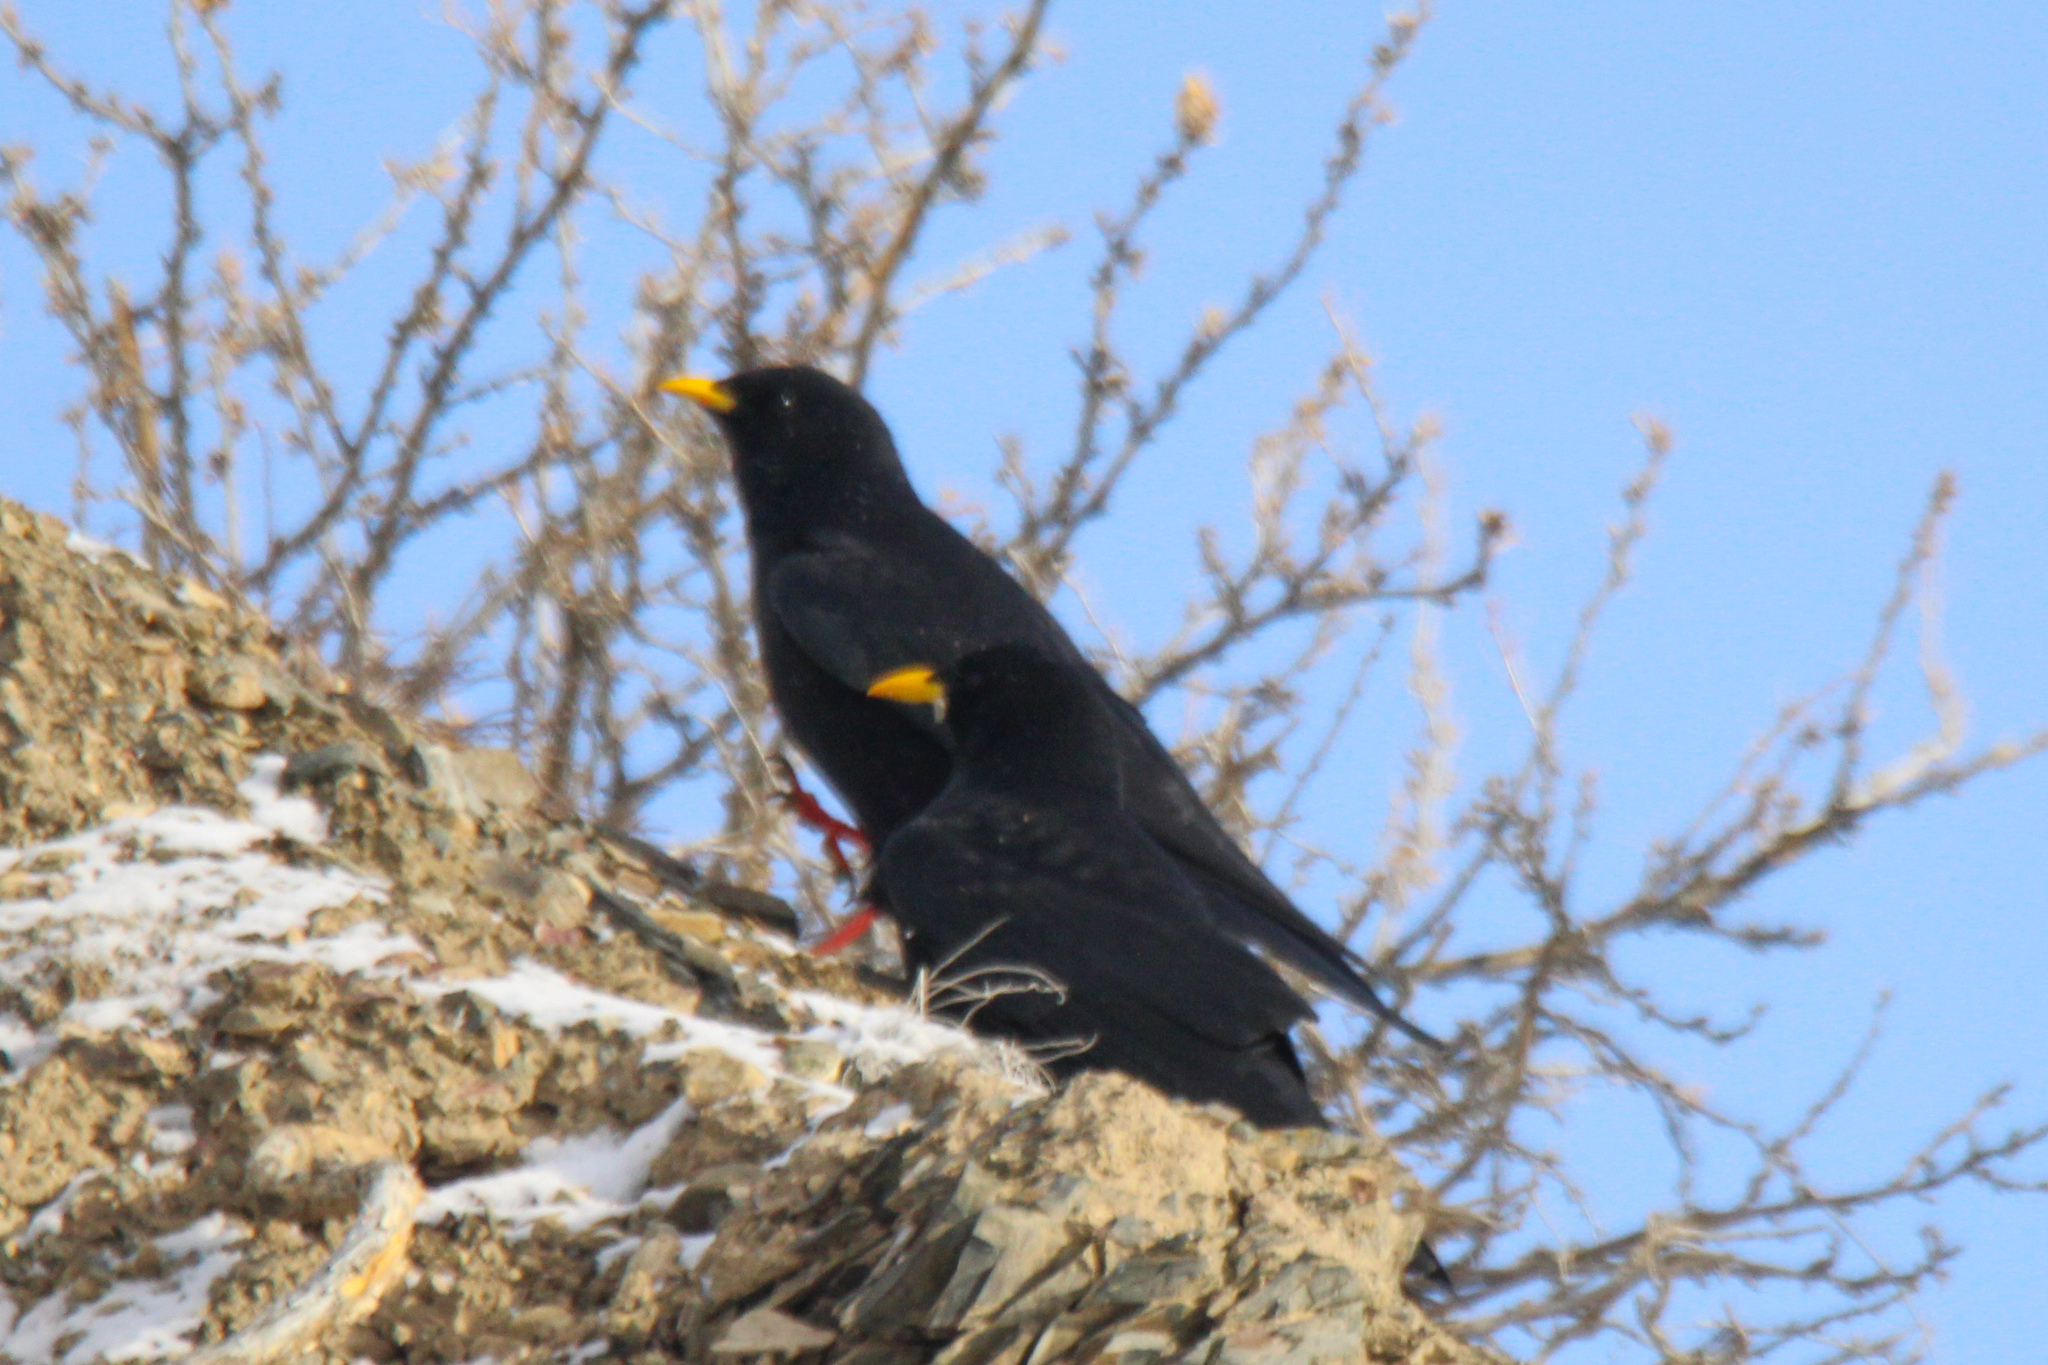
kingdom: Animalia
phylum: Chordata
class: Aves
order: Passeriformes
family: Corvidae
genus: Pyrrhocorax
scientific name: Pyrrhocorax graculus
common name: Alpine chough
